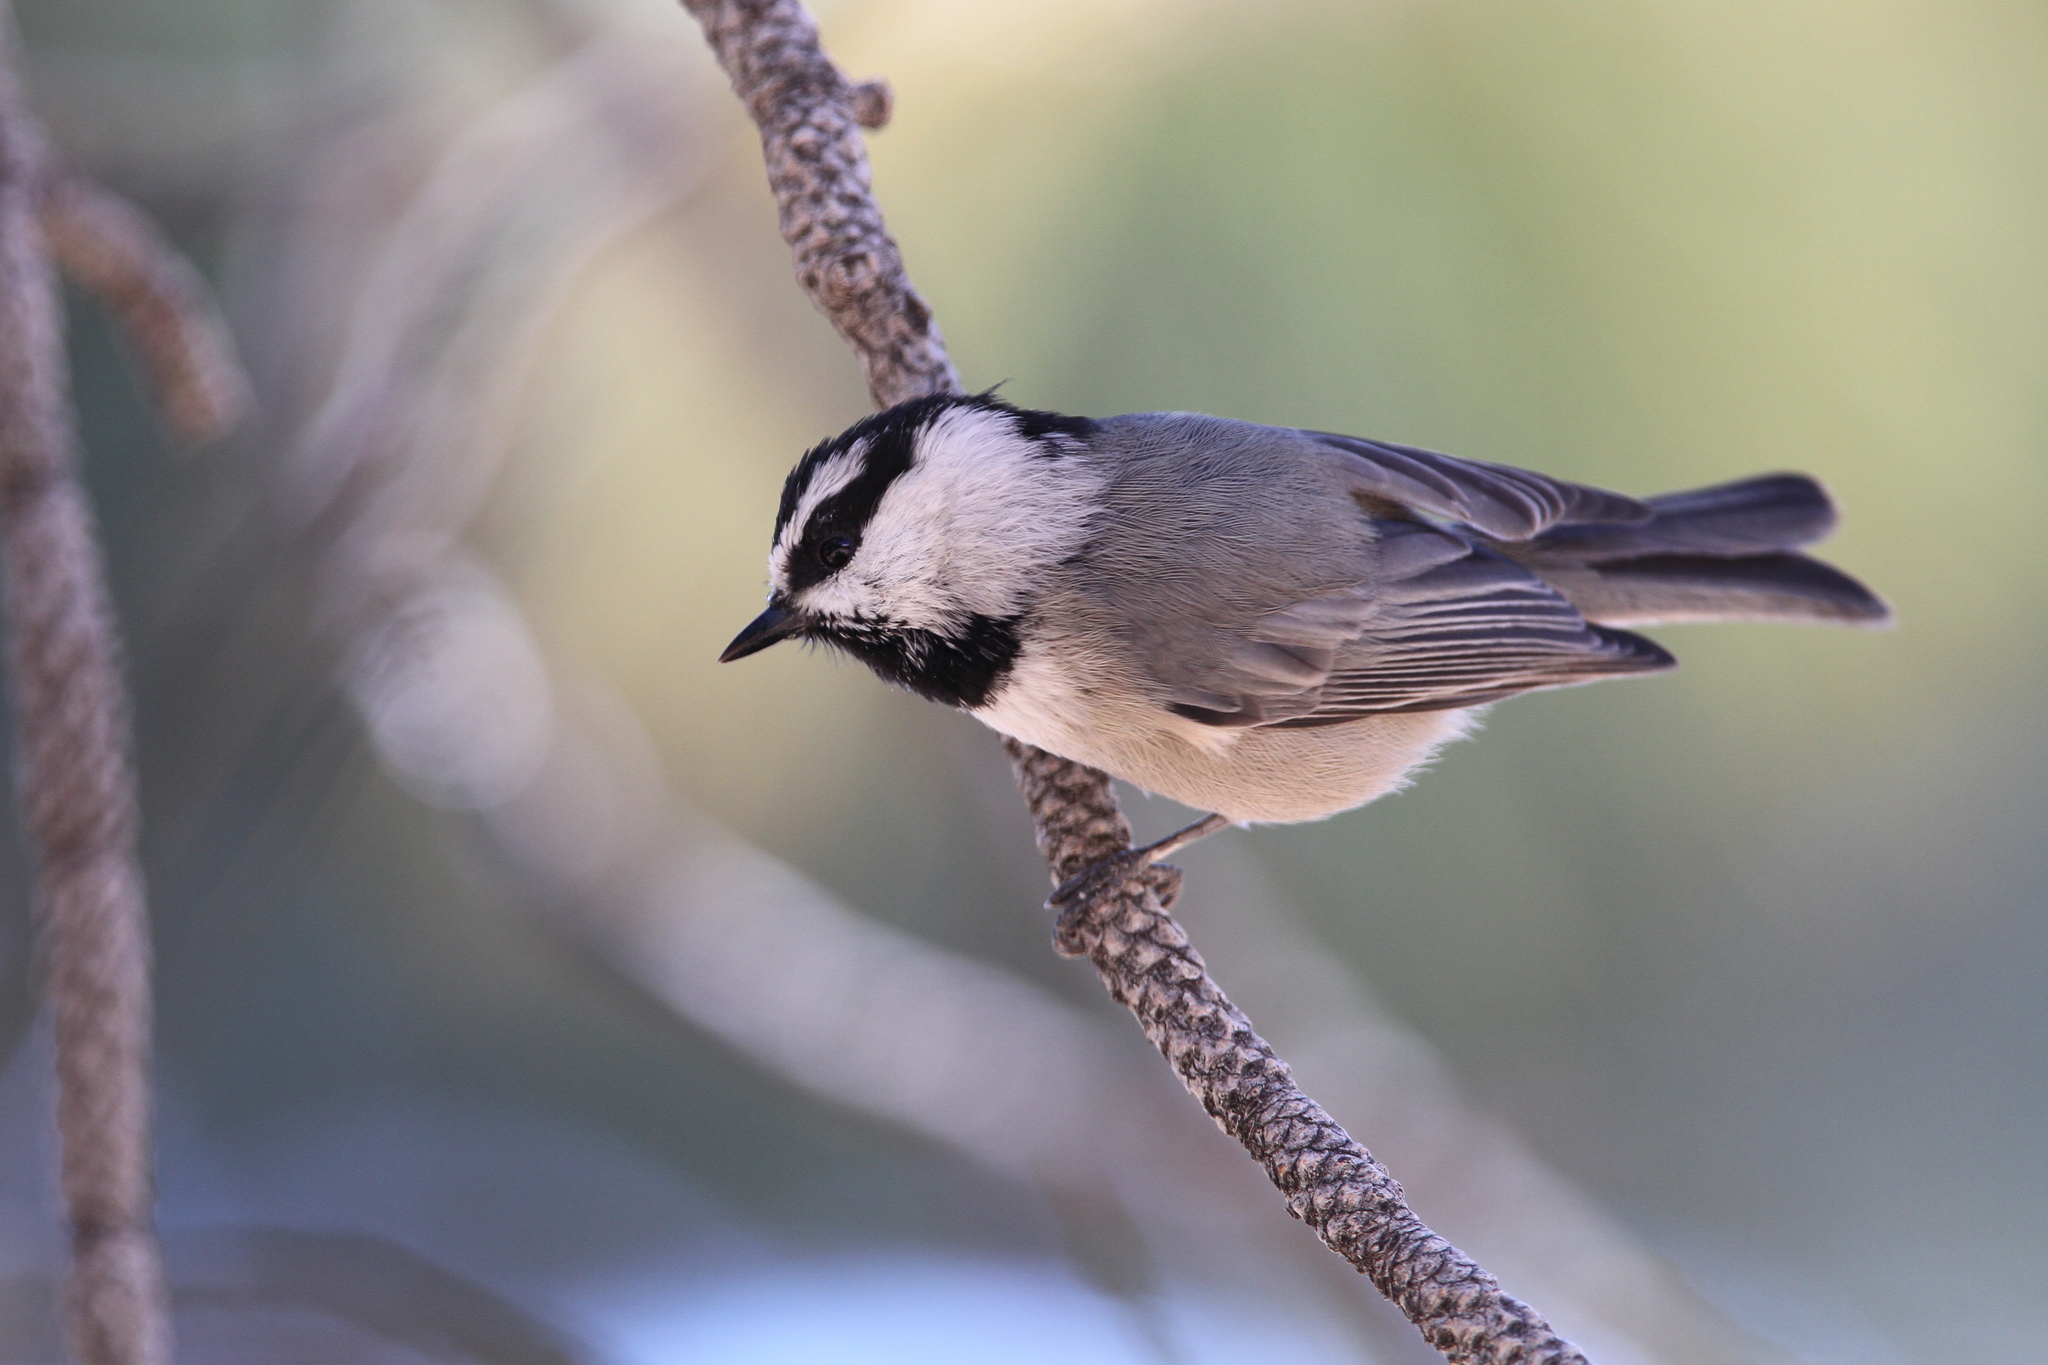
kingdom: Animalia
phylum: Chordata
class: Aves
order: Passeriformes
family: Paridae
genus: Poecile
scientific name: Poecile gambeli
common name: Mountain chickadee
